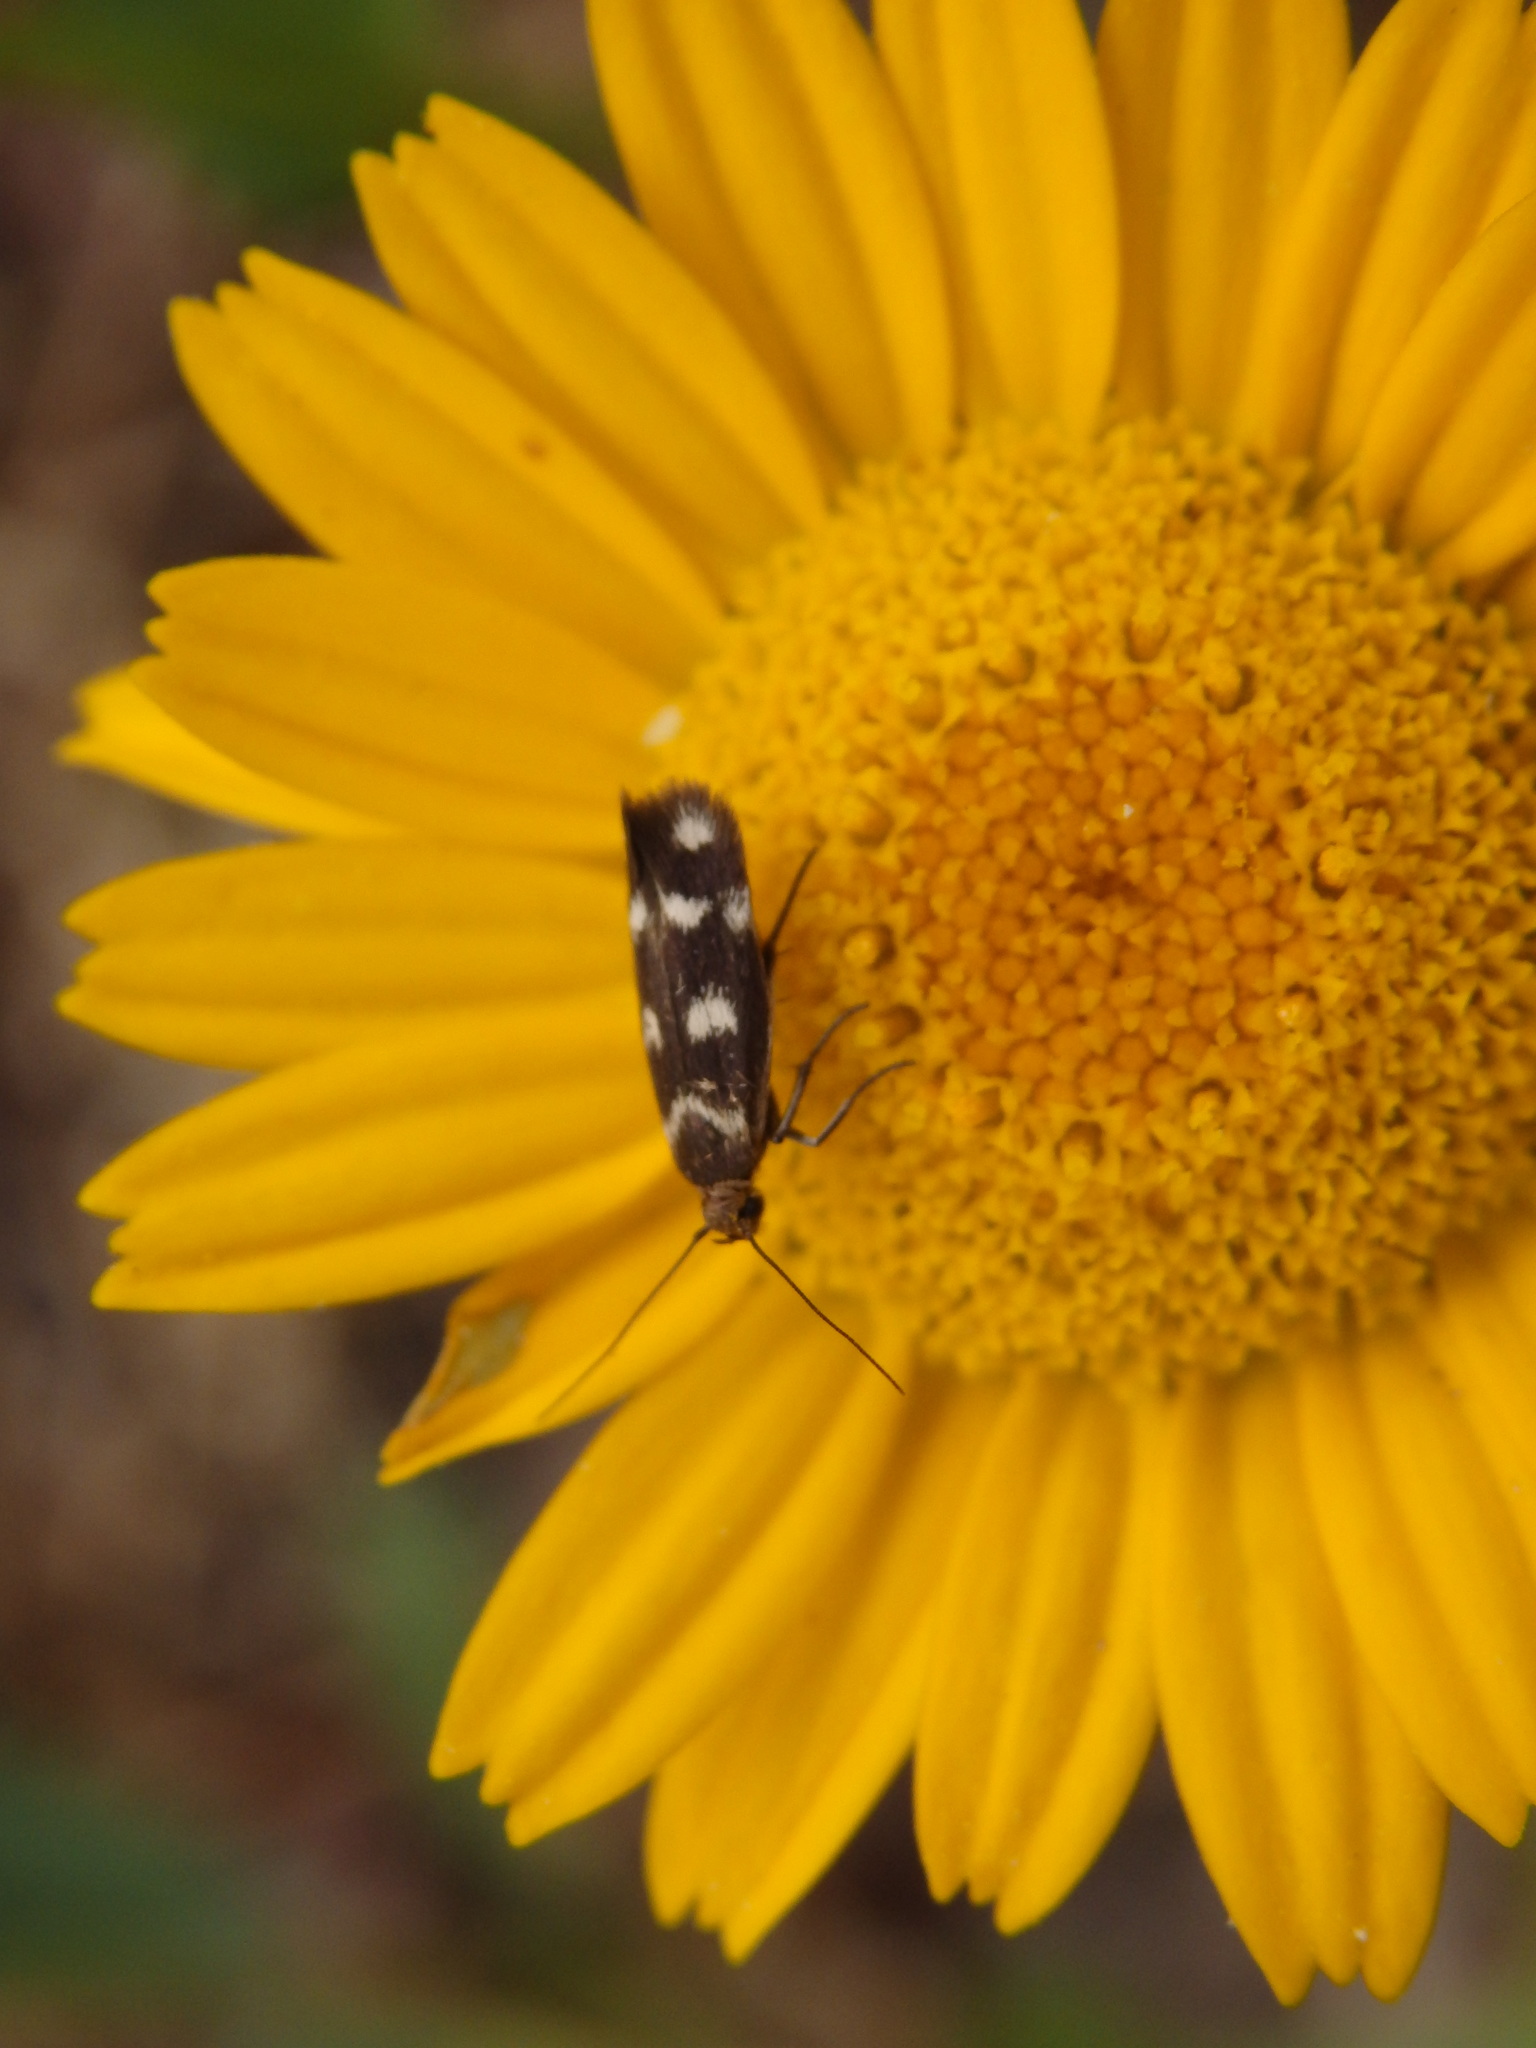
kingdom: Animalia
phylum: Arthropoda
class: Insecta
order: Lepidoptera
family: Scythrididae
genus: Scythris
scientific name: Scythris scopolella
